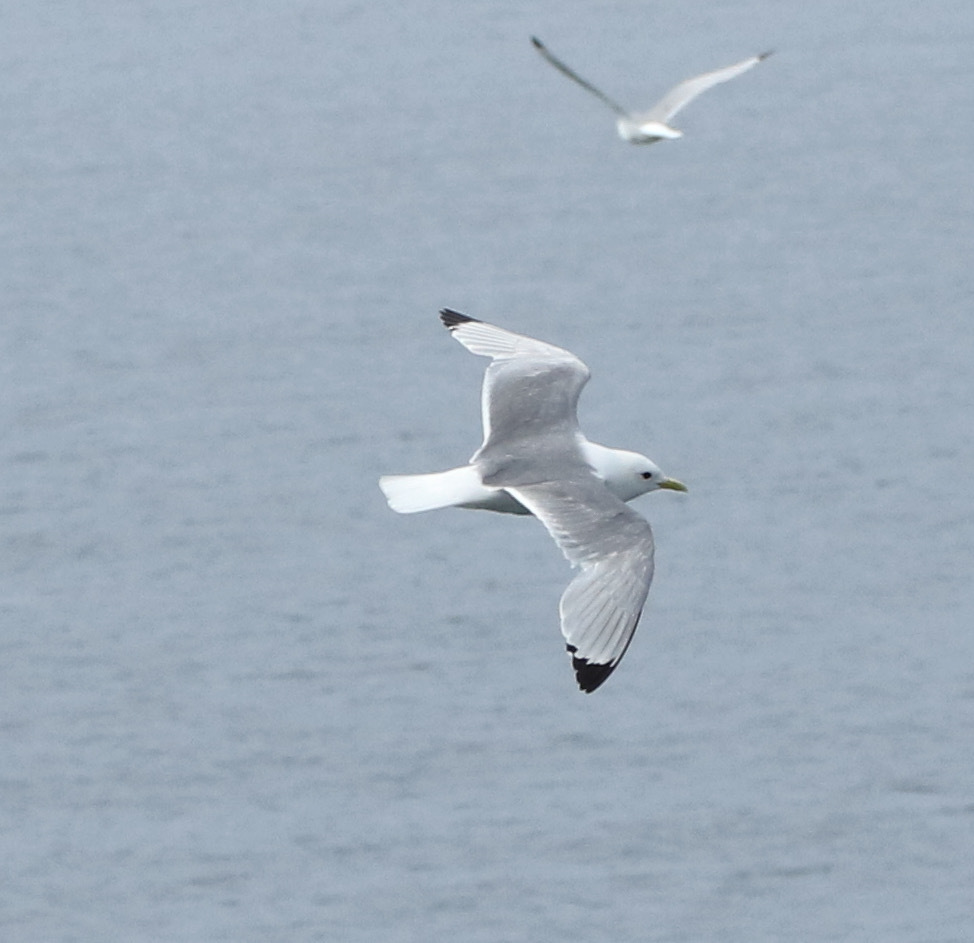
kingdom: Animalia
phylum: Chordata
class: Aves
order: Charadriiformes
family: Laridae
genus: Rissa
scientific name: Rissa tridactyla
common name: Black-legged kittiwake
